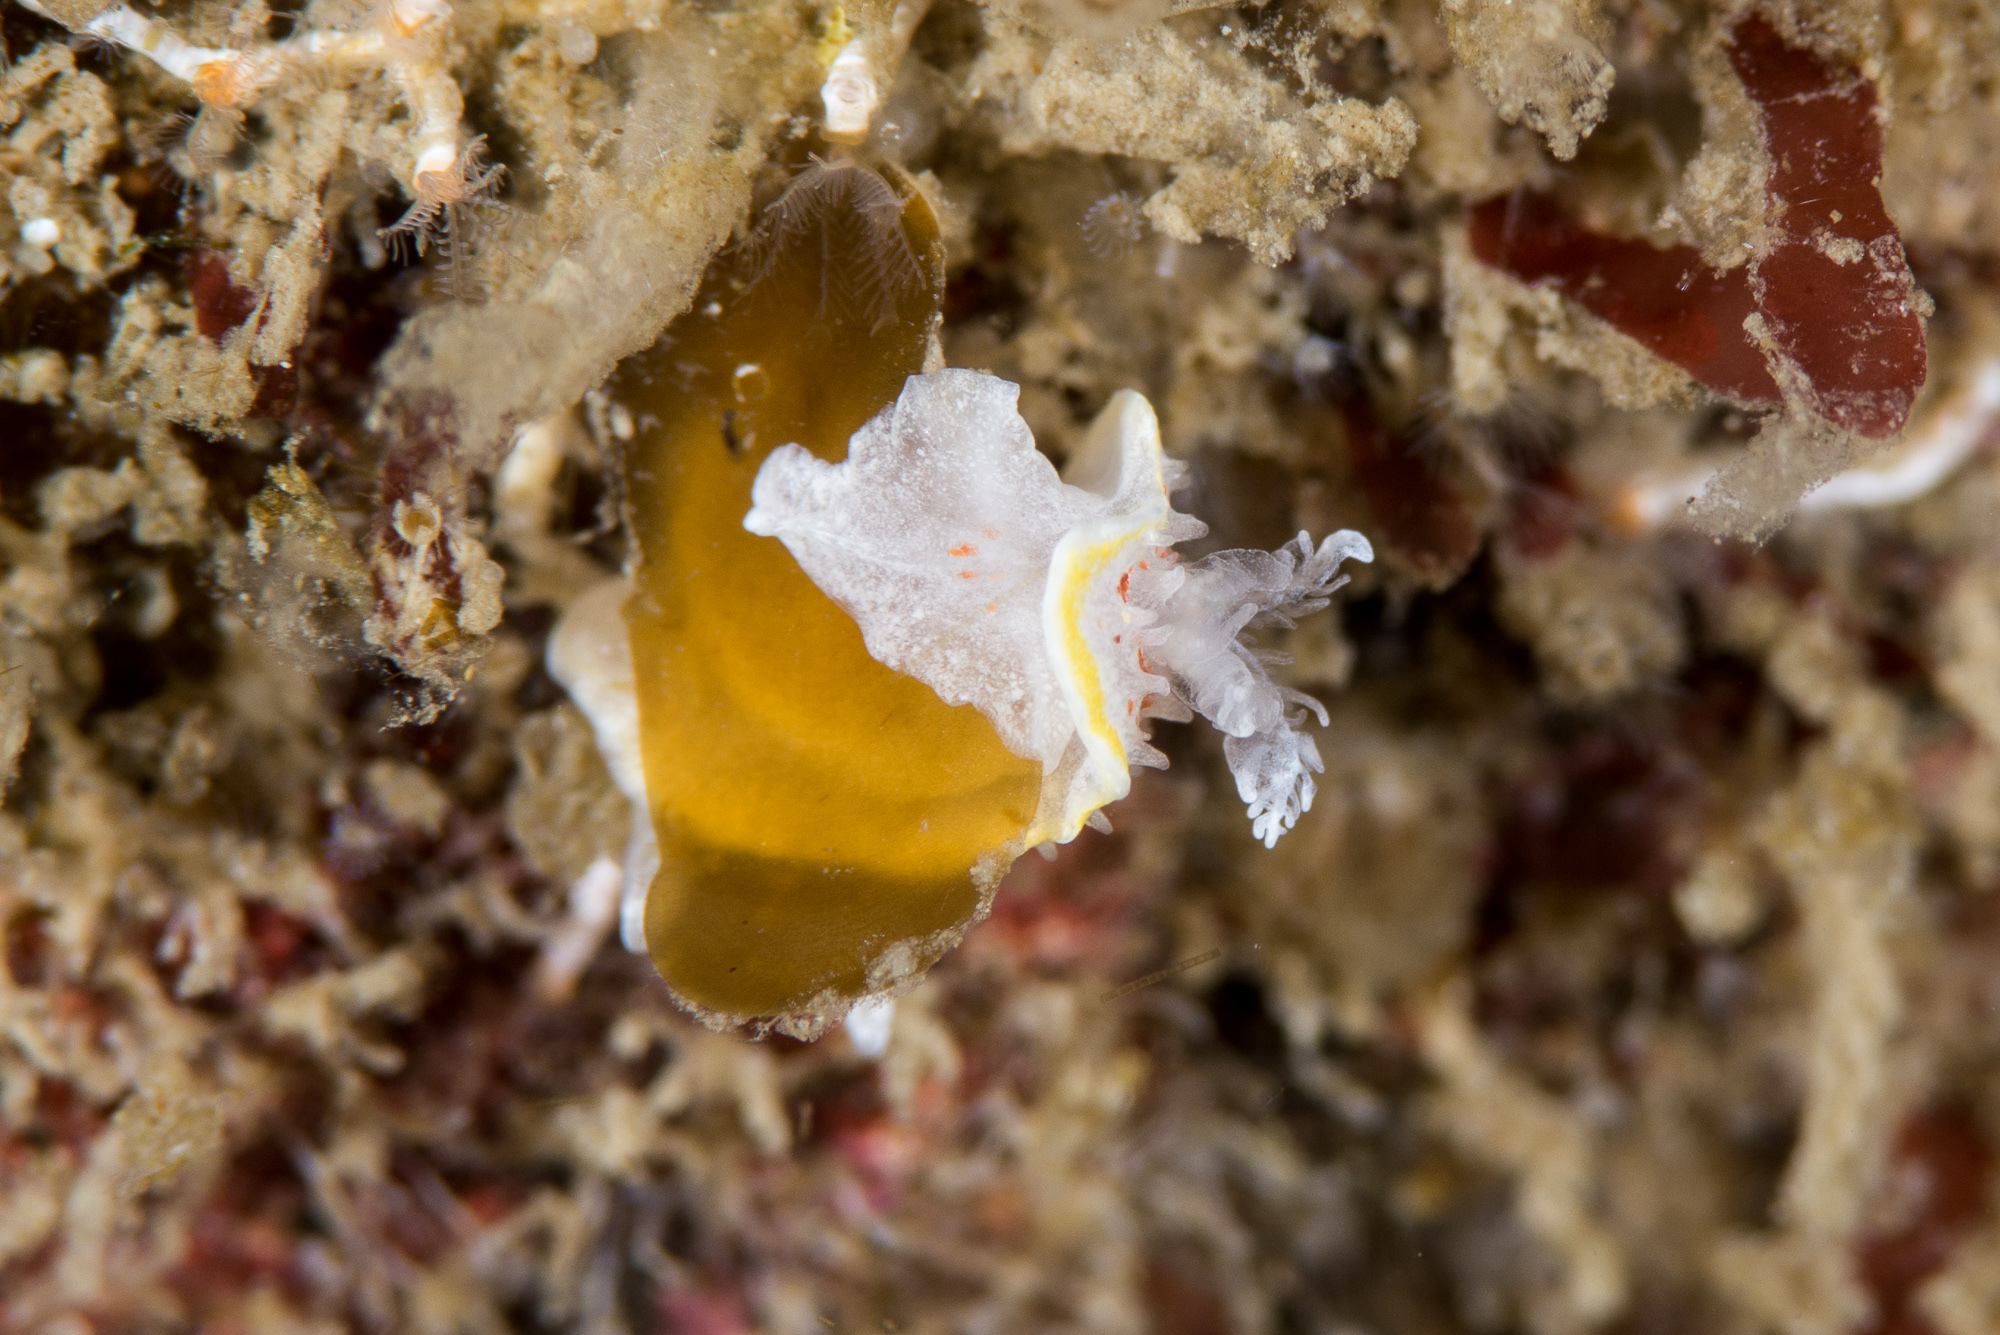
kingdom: Animalia
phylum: Mollusca
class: Gastropoda
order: Nudibranchia
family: Calycidorididae
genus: Diaphorodoris
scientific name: Diaphorodoris luteocincta
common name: Fried egg nudibranch
